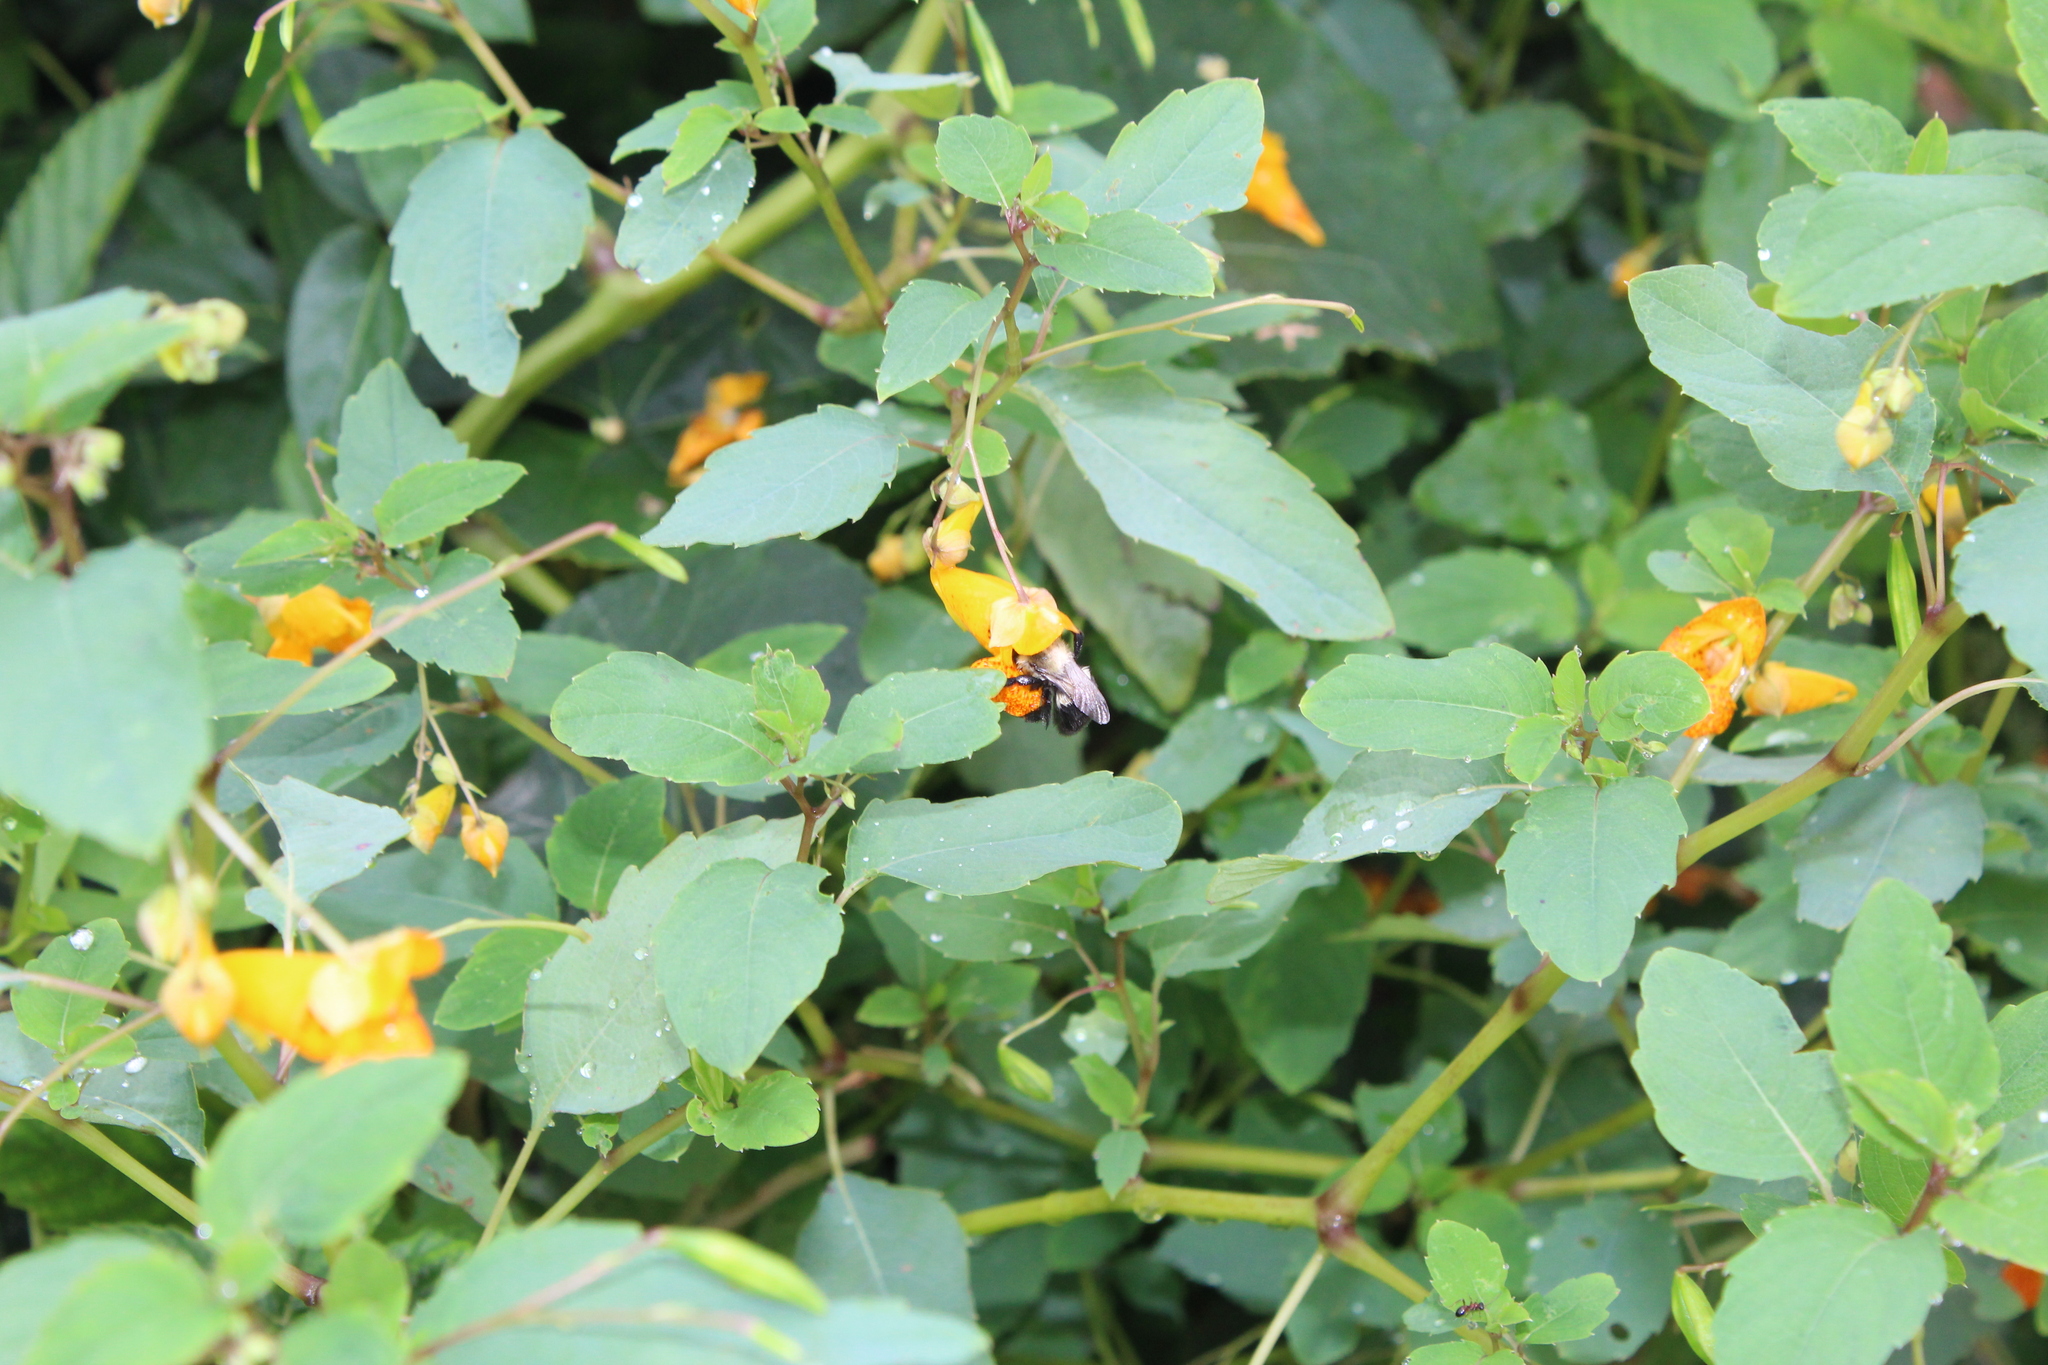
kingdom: Animalia
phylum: Arthropoda
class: Insecta
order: Hymenoptera
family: Apidae
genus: Bombus
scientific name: Bombus impatiens
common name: Common eastern bumble bee
